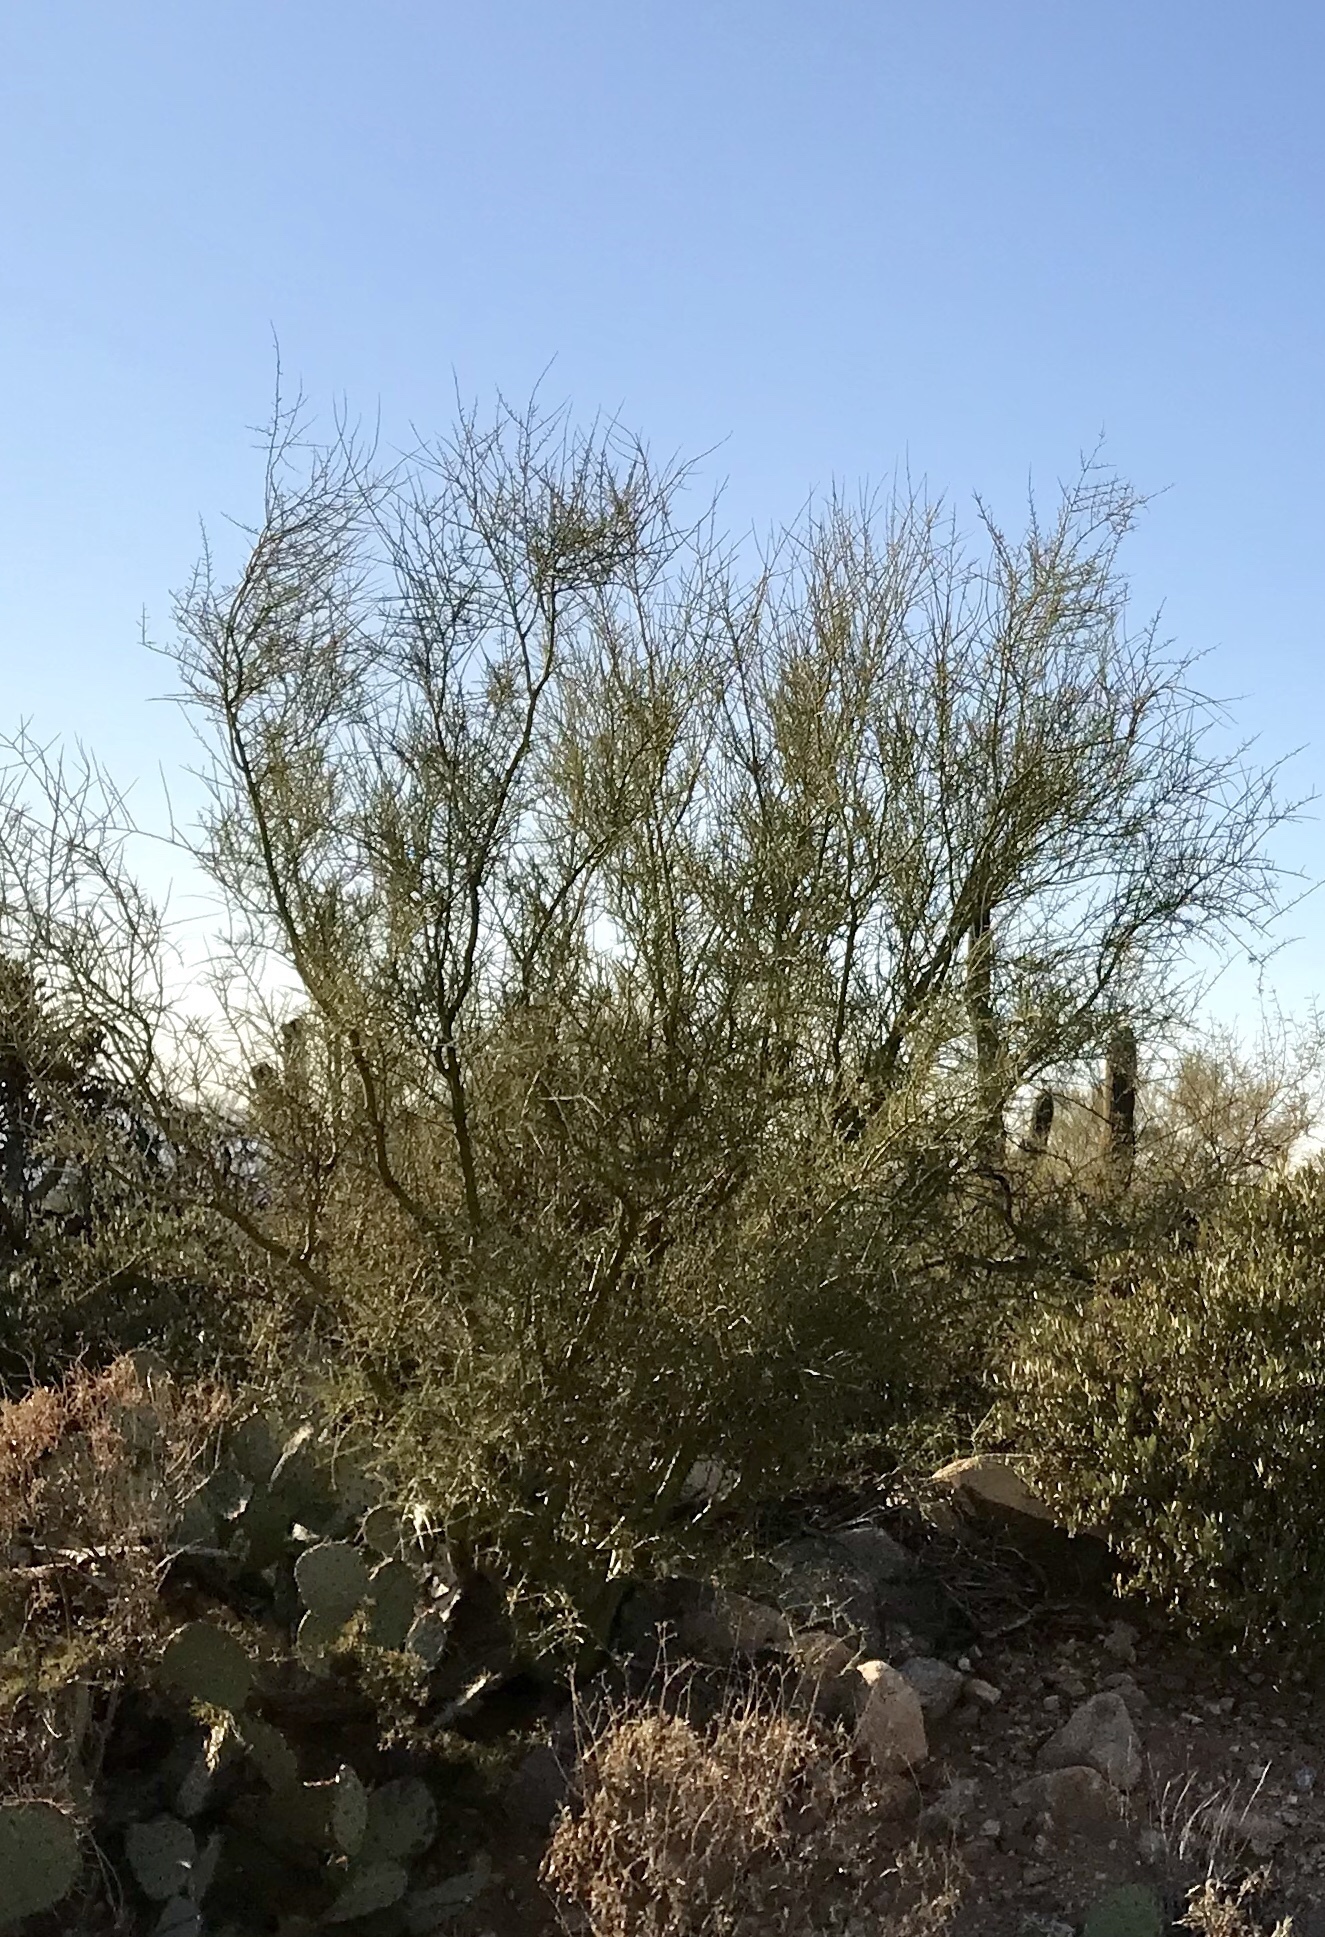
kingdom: Plantae
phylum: Tracheophyta
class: Magnoliopsida
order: Fabales
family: Fabaceae
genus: Parkinsonia
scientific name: Parkinsonia microphylla
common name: Yellow paloverde
